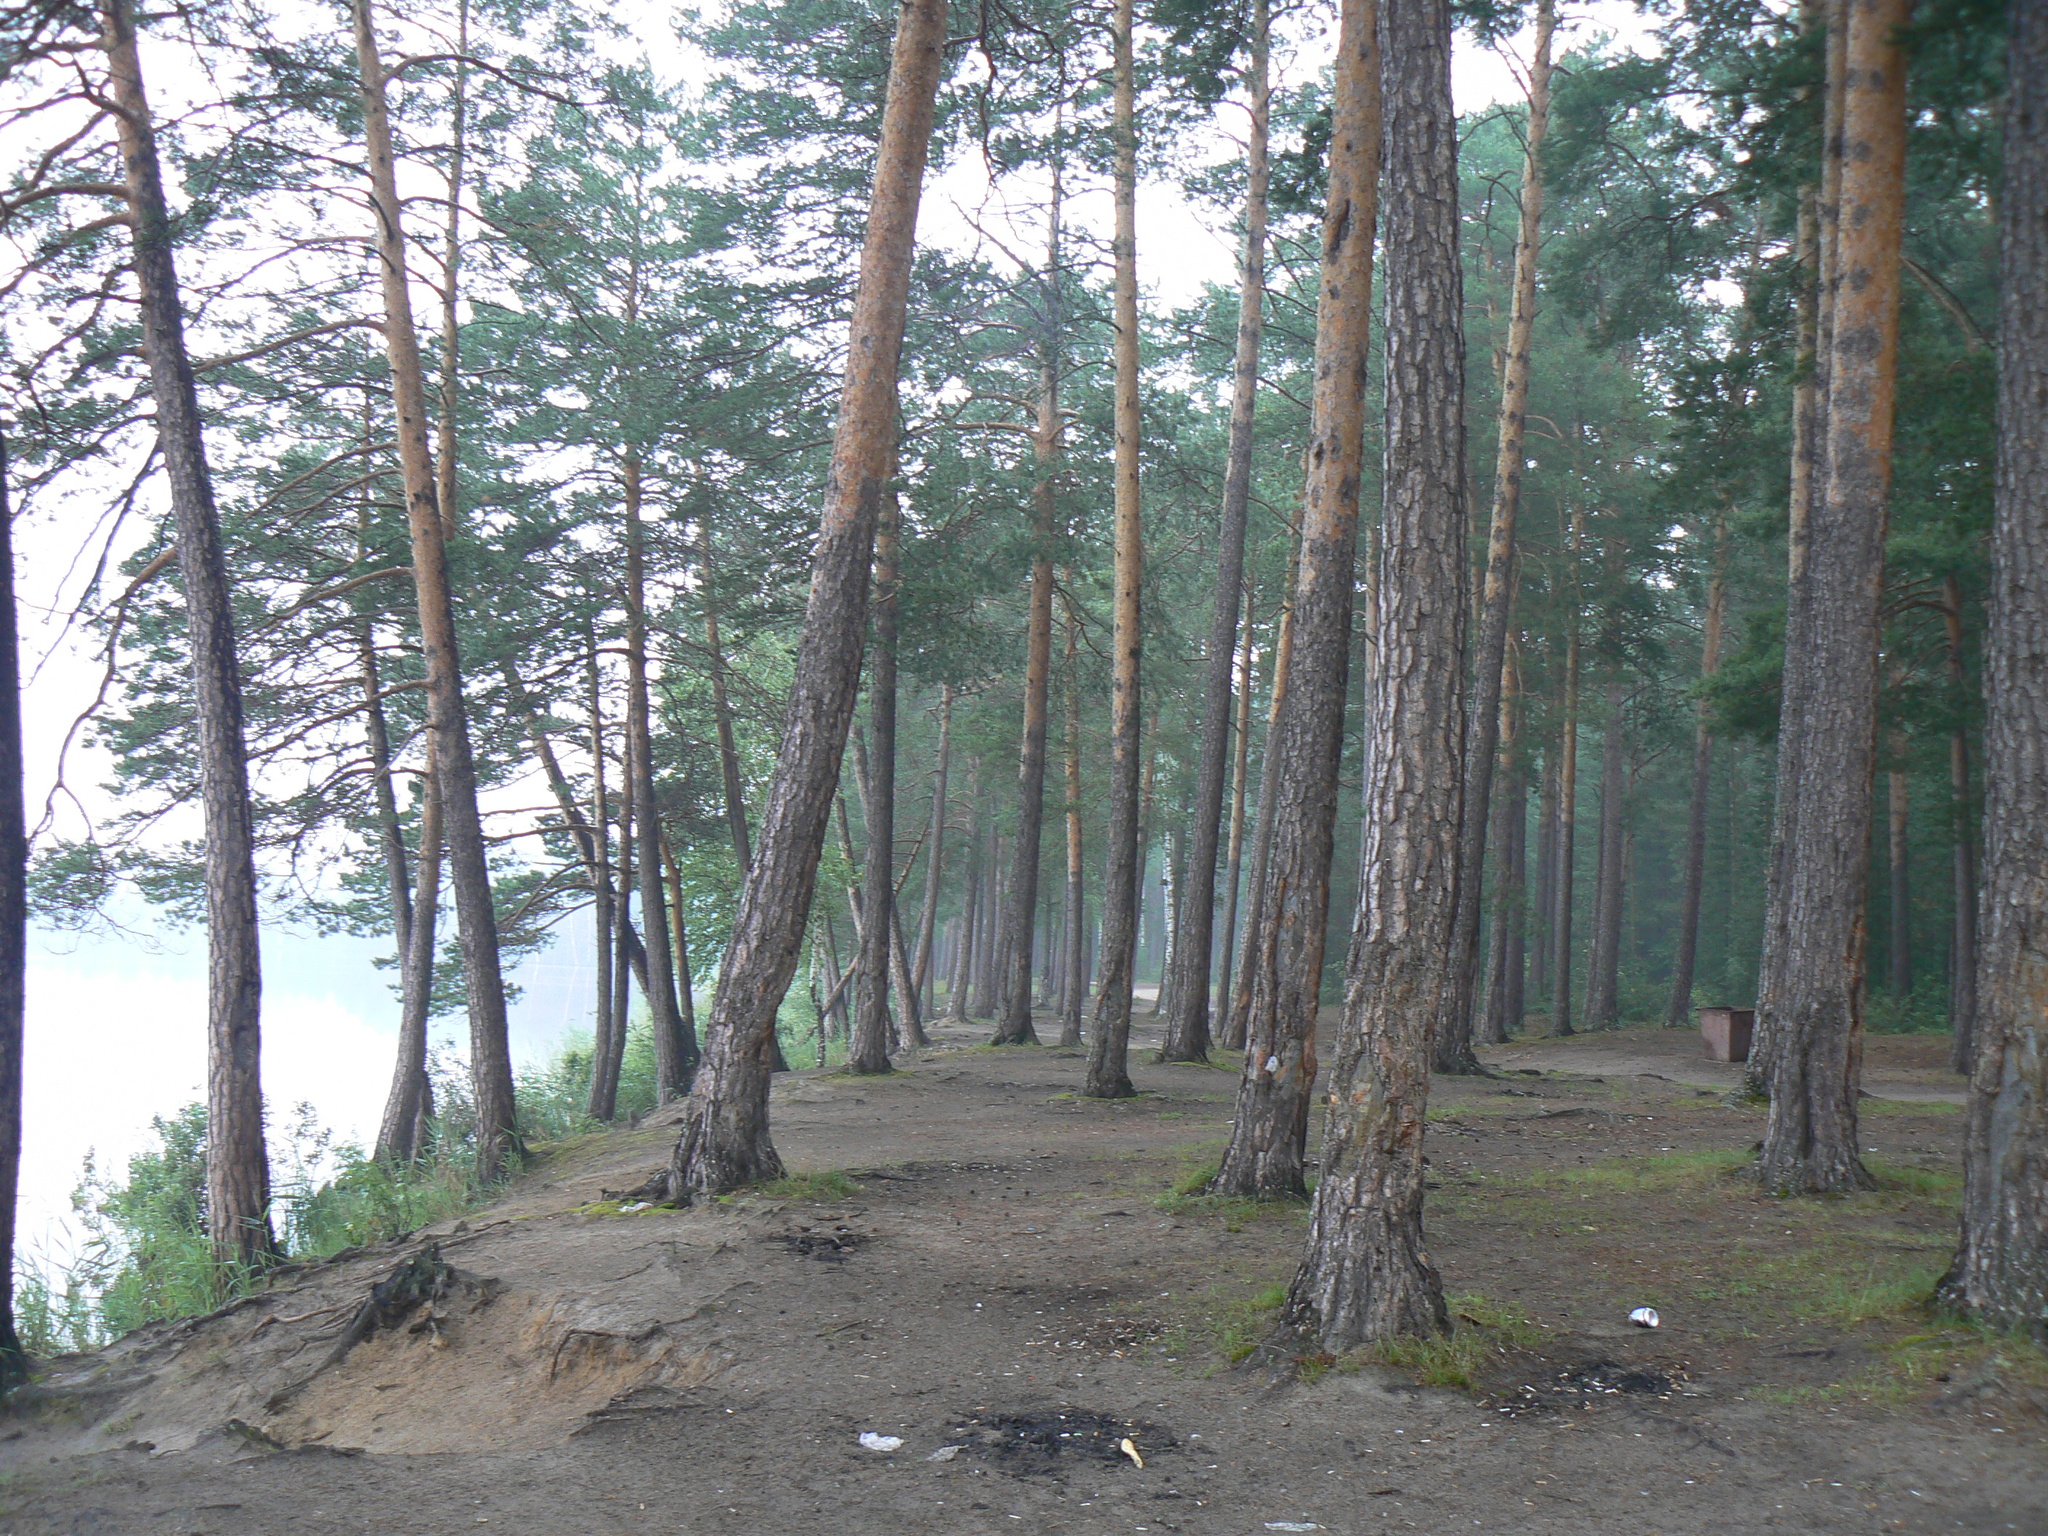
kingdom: Plantae
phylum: Tracheophyta
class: Pinopsida
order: Pinales
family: Pinaceae
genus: Pinus
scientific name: Pinus sylvestris
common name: Scots pine
